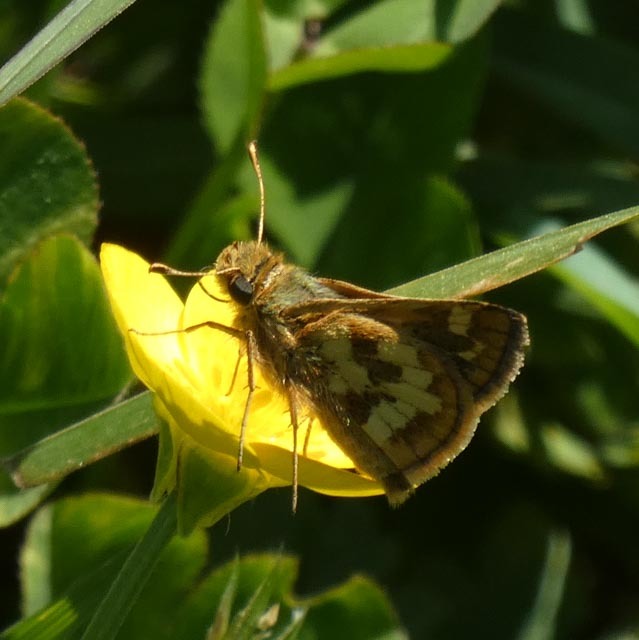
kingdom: Animalia
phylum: Arthropoda
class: Insecta
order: Lepidoptera
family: Hesperiidae
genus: Polites
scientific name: Polites coras
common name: Peck's skipper
